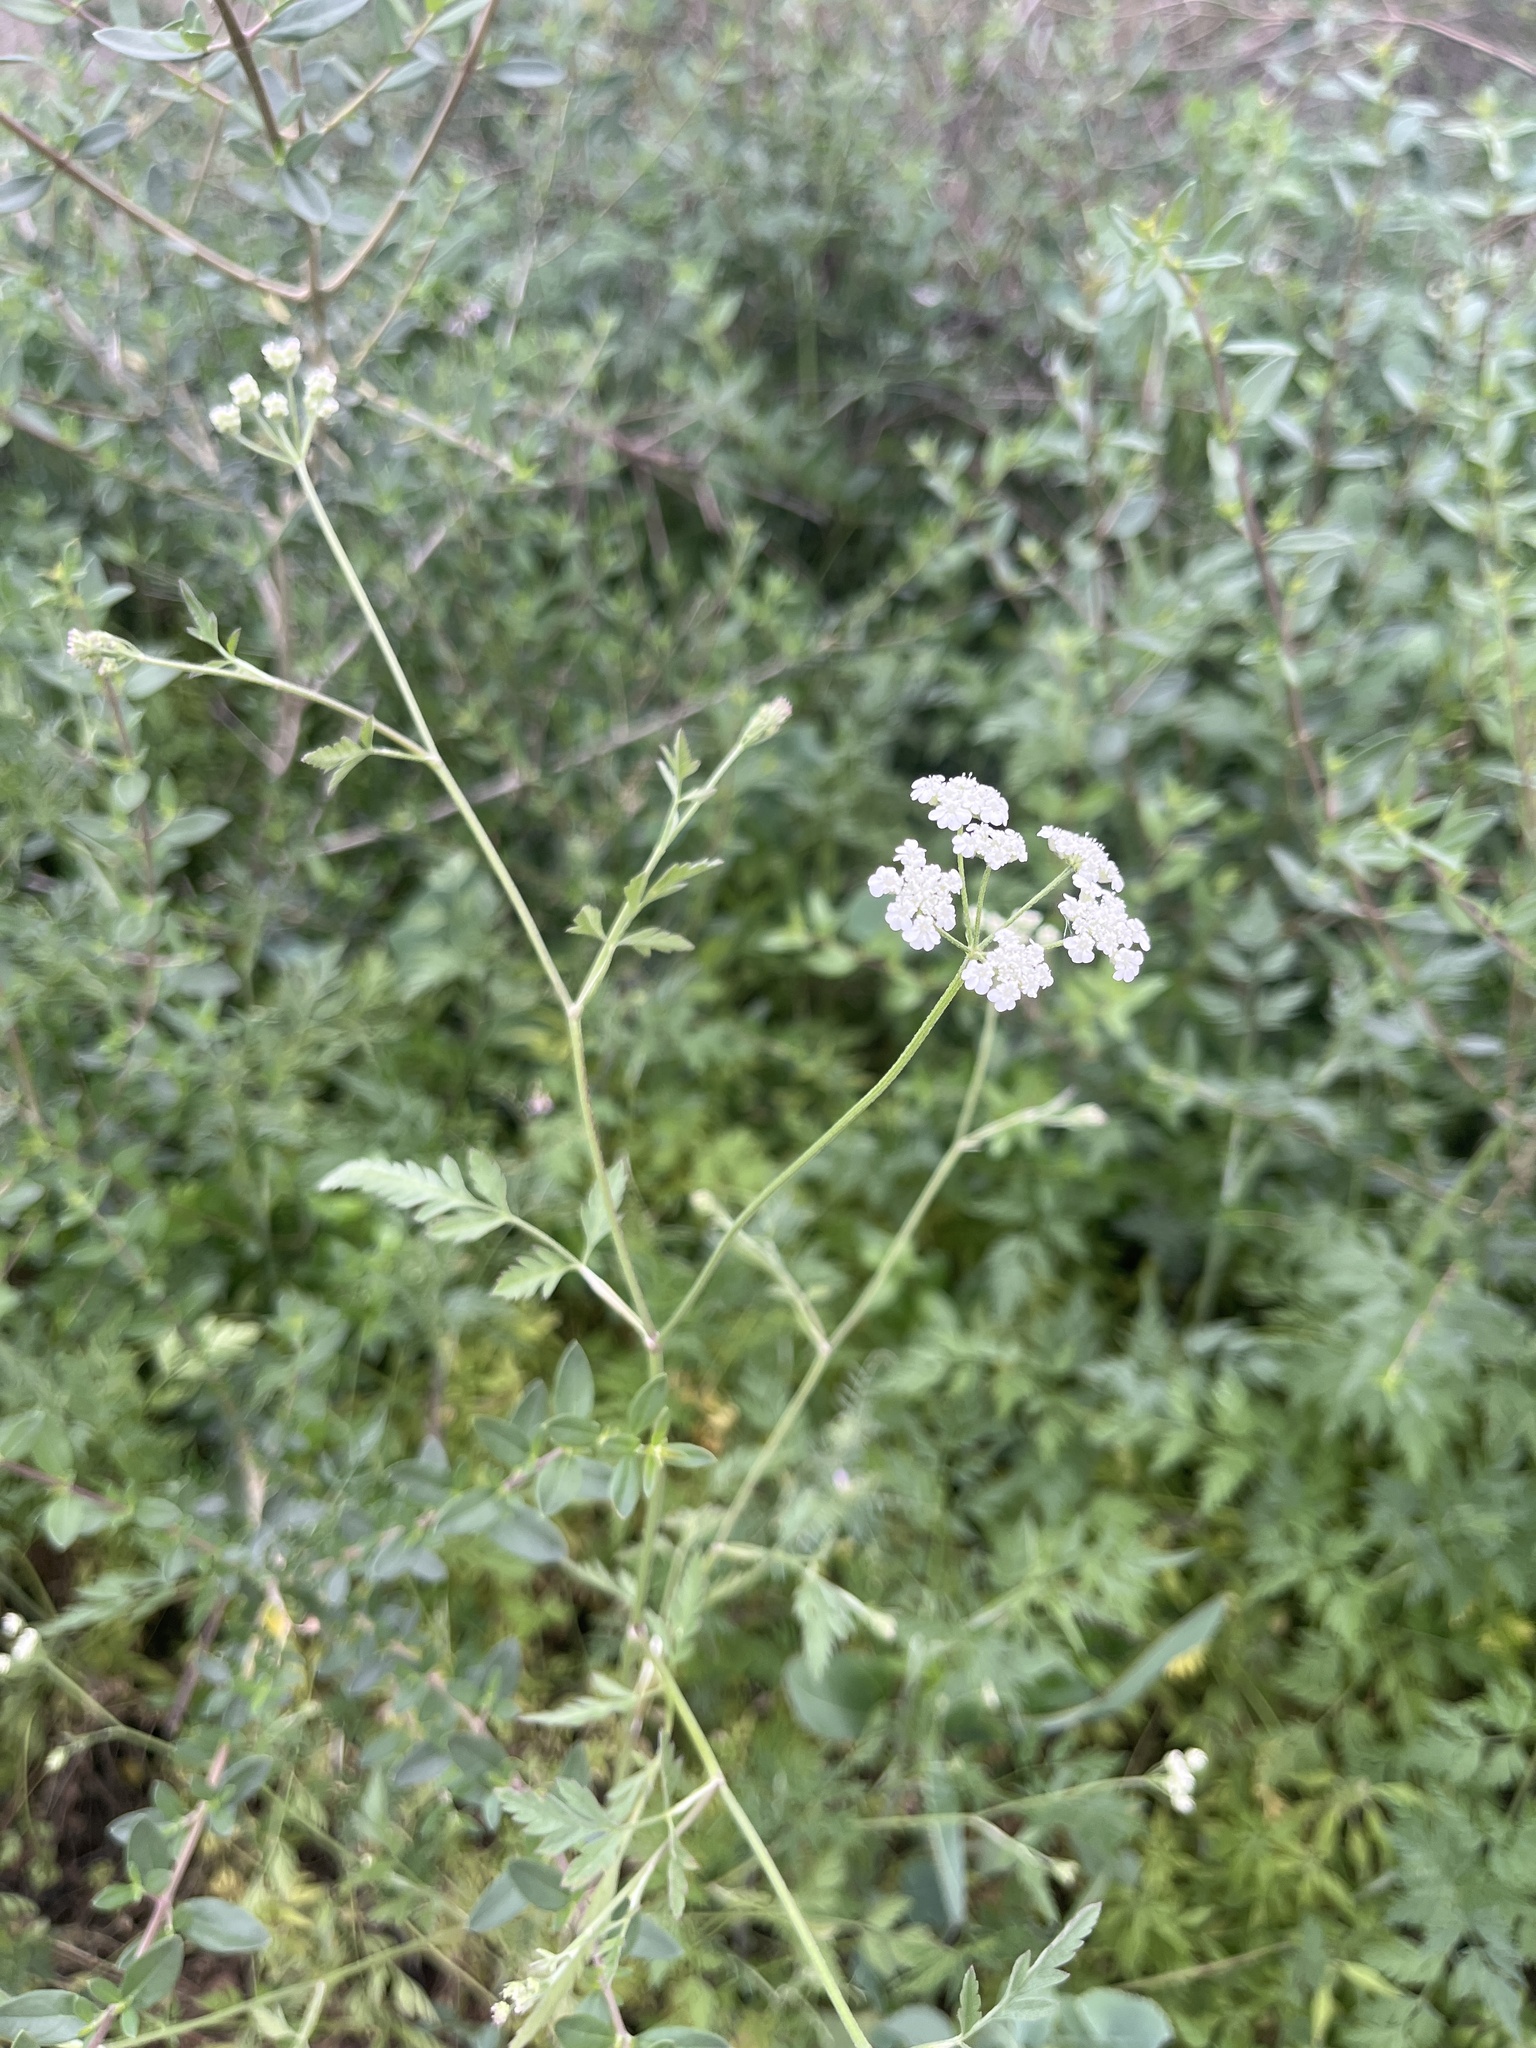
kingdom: Plantae
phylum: Tracheophyta
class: Magnoliopsida
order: Apiales
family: Apiaceae
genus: Torilis
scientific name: Torilis arvensis
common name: Spreading hedge-parsley
